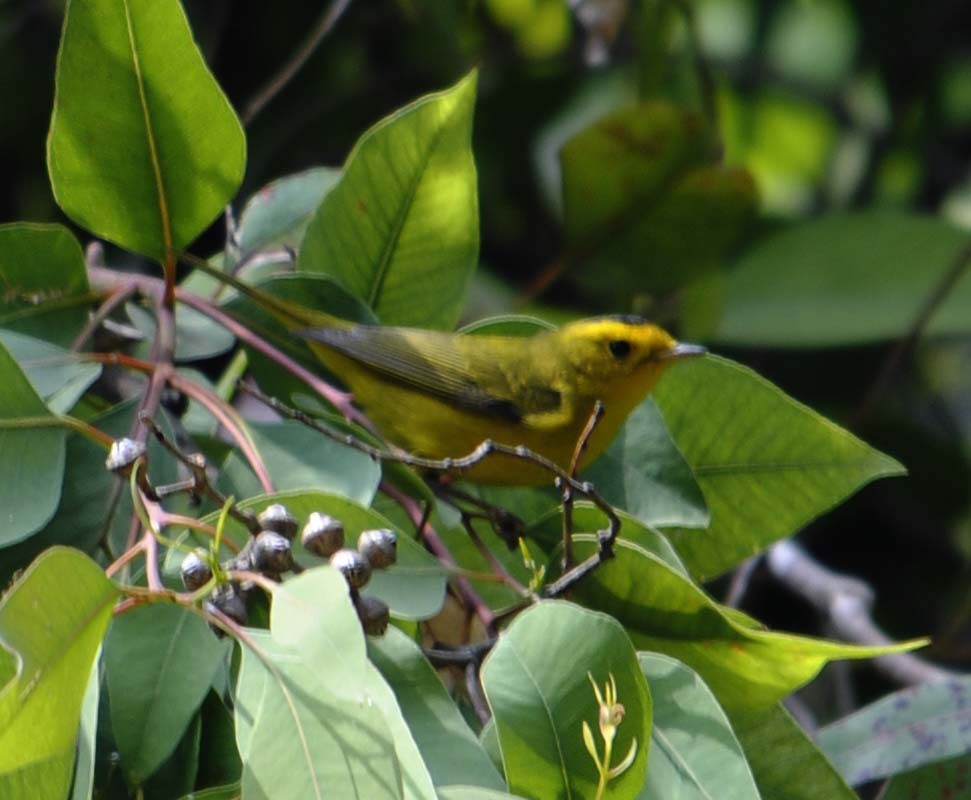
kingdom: Animalia
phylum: Chordata
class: Aves
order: Passeriformes
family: Parulidae
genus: Cardellina
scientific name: Cardellina pusilla
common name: Wilson's warbler
